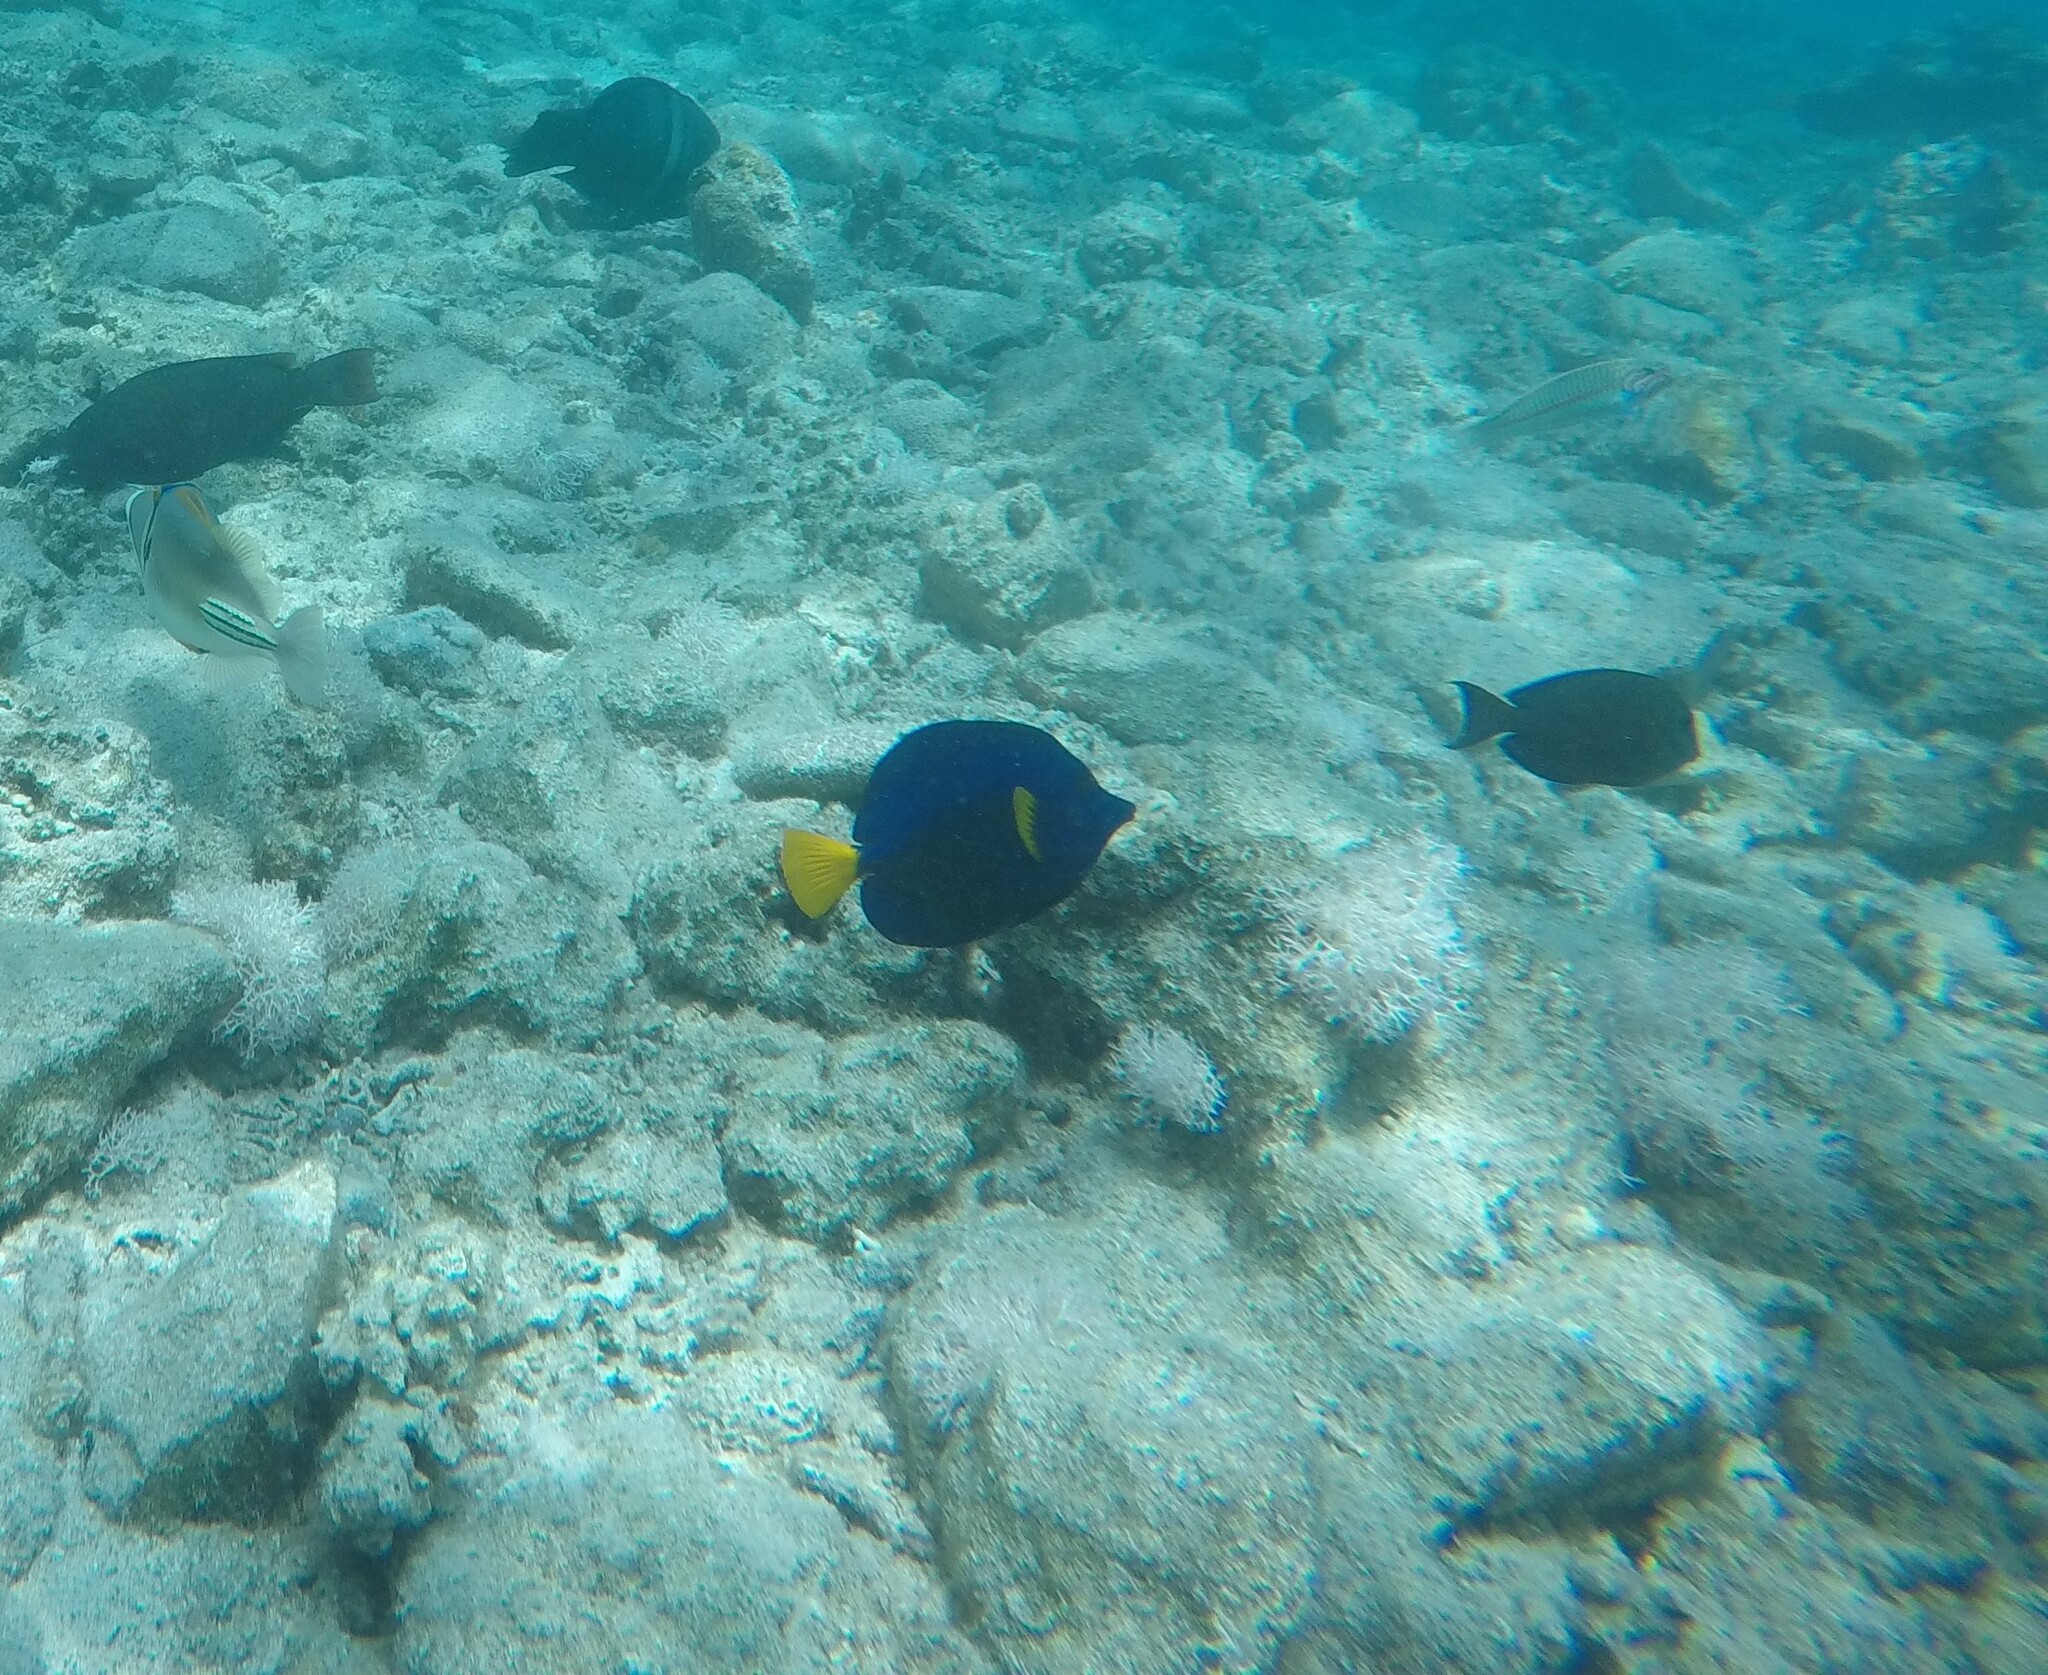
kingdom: Animalia
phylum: Chordata
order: Perciformes
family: Acanthuridae
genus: Zebrasoma
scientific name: Zebrasoma xanthurum
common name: Purple tang
